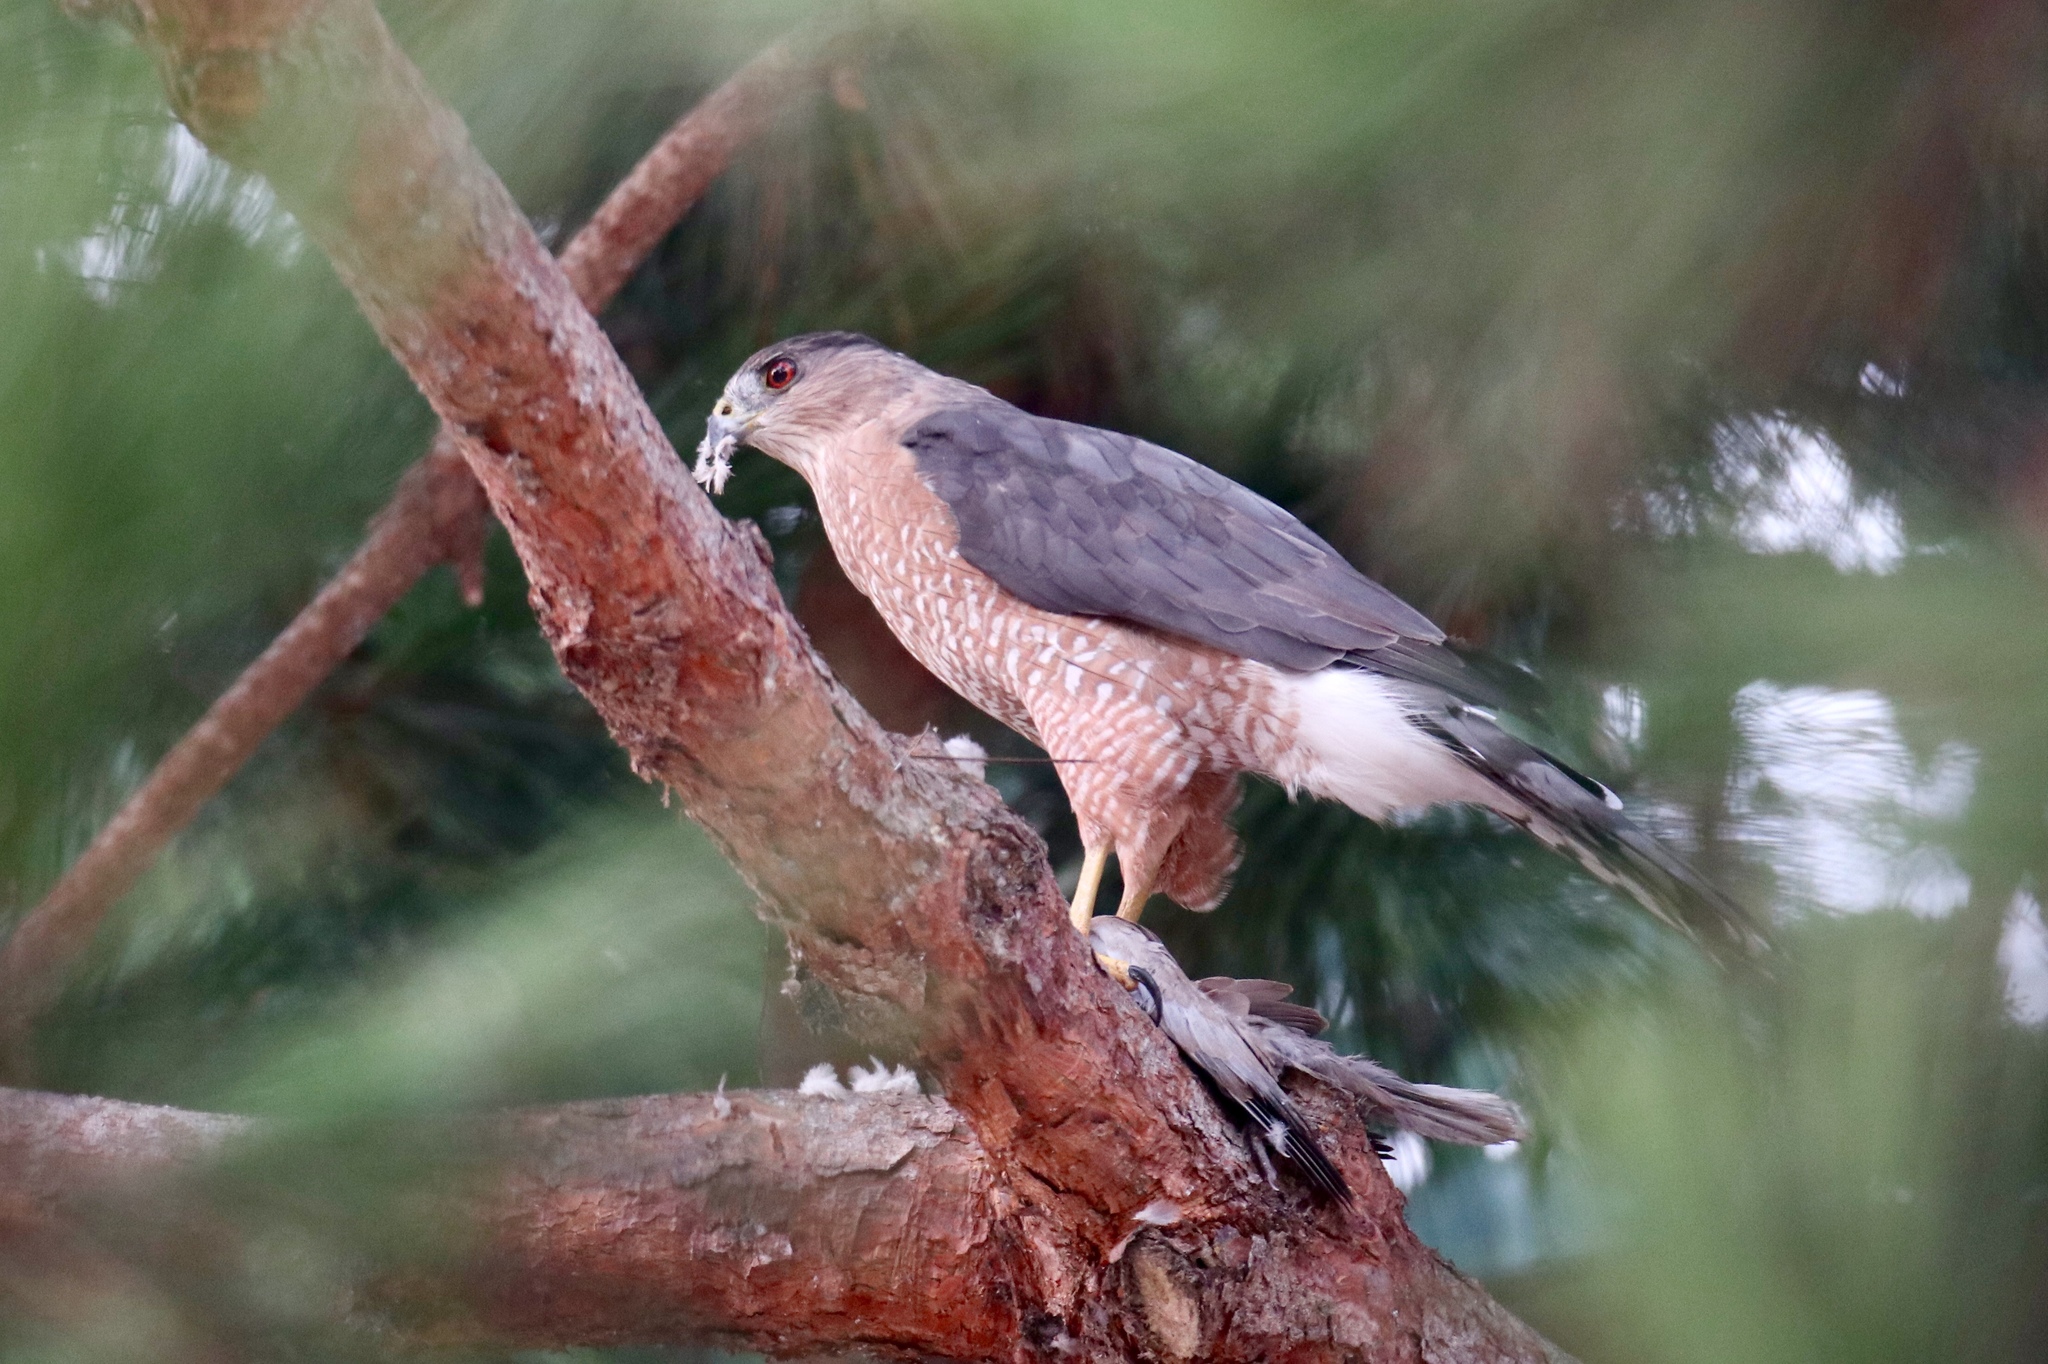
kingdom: Animalia
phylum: Chordata
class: Aves
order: Accipitriformes
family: Accipitridae
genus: Accipiter
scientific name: Accipiter cooperii
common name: Cooper's hawk
